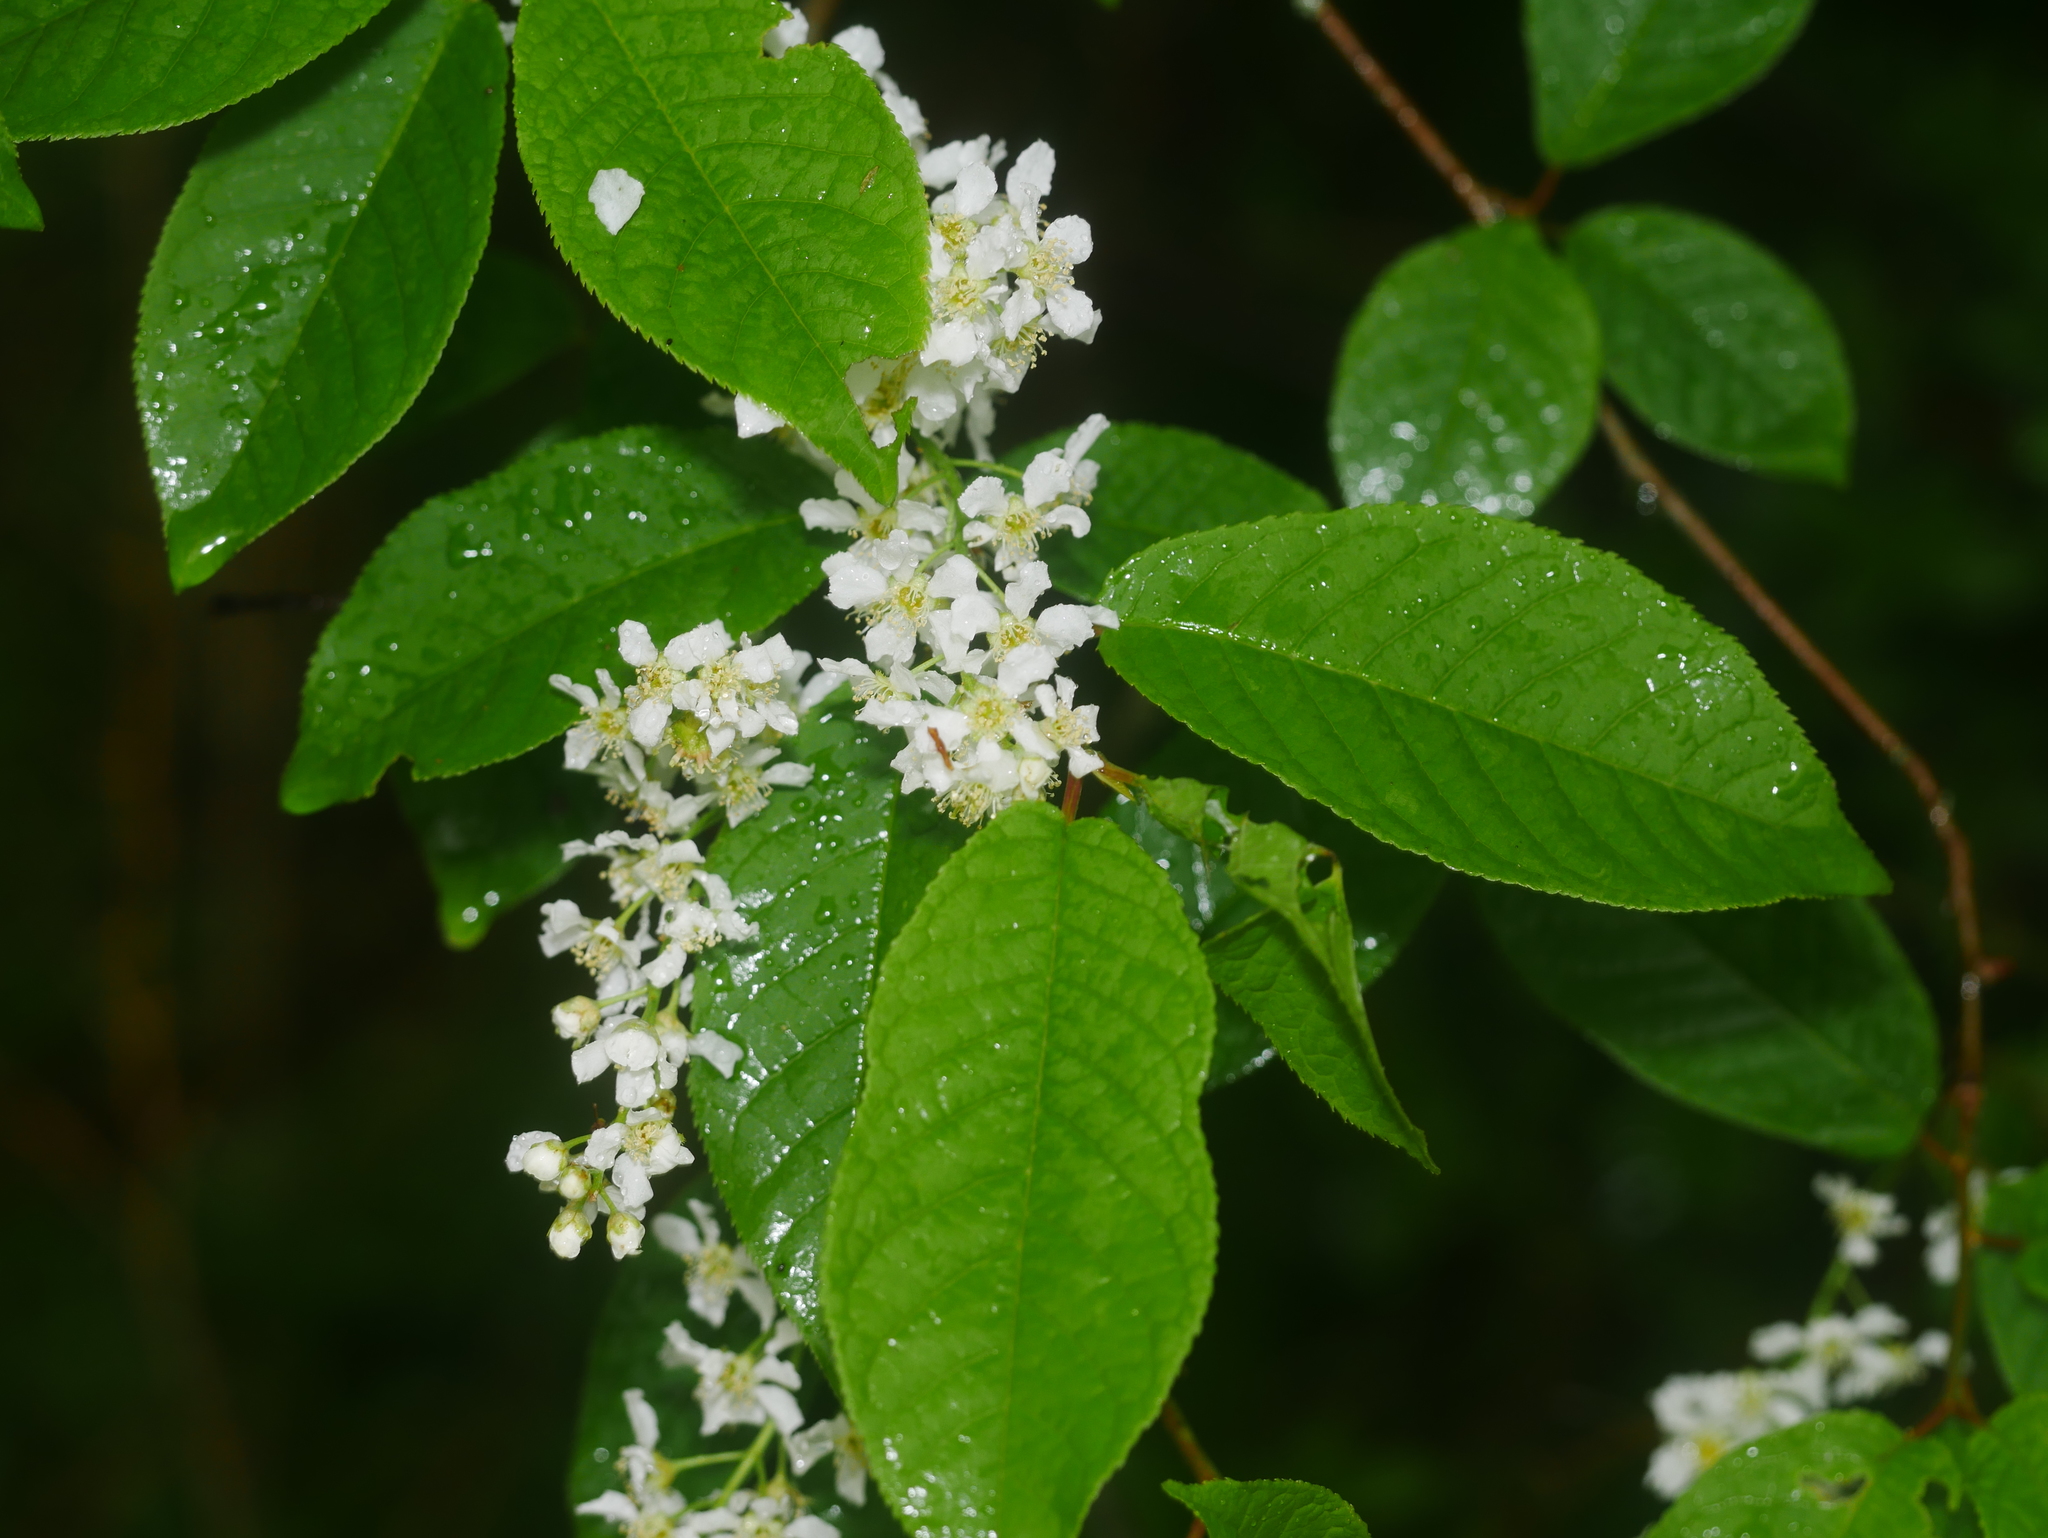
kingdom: Plantae
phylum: Tracheophyta
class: Magnoliopsida
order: Rosales
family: Rosaceae
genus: Prunus
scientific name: Prunus padus
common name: Bird cherry
